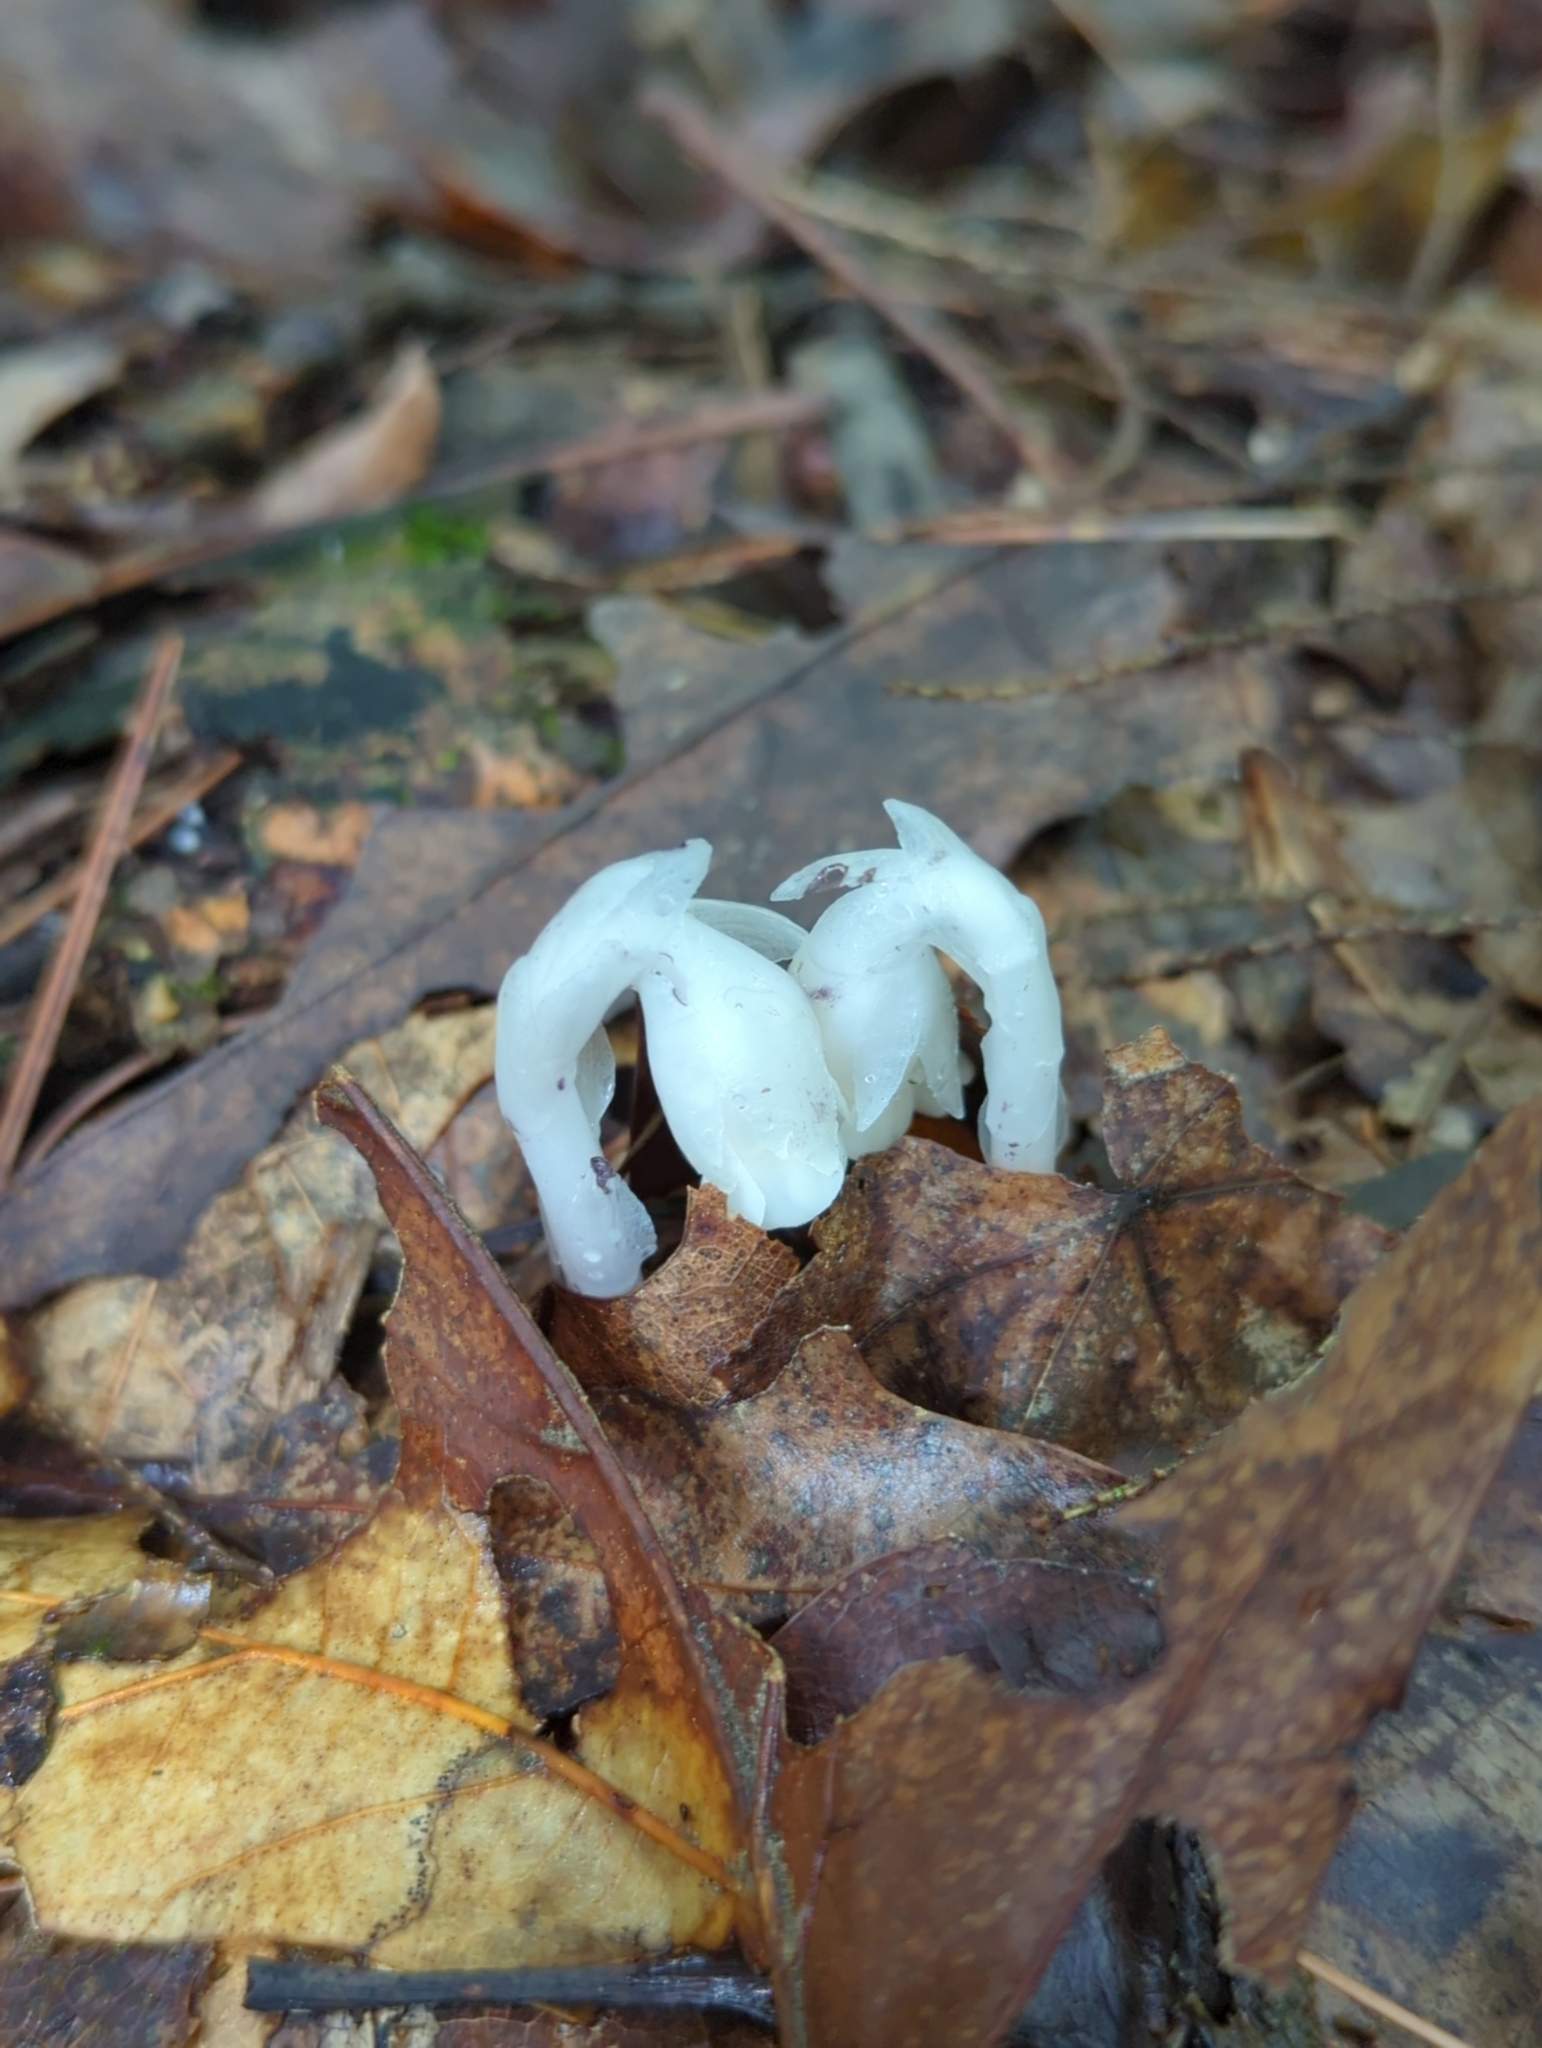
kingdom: Plantae
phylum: Tracheophyta
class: Magnoliopsida
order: Ericales
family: Ericaceae
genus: Monotropa
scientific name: Monotropa uniflora
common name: Convulsion root
